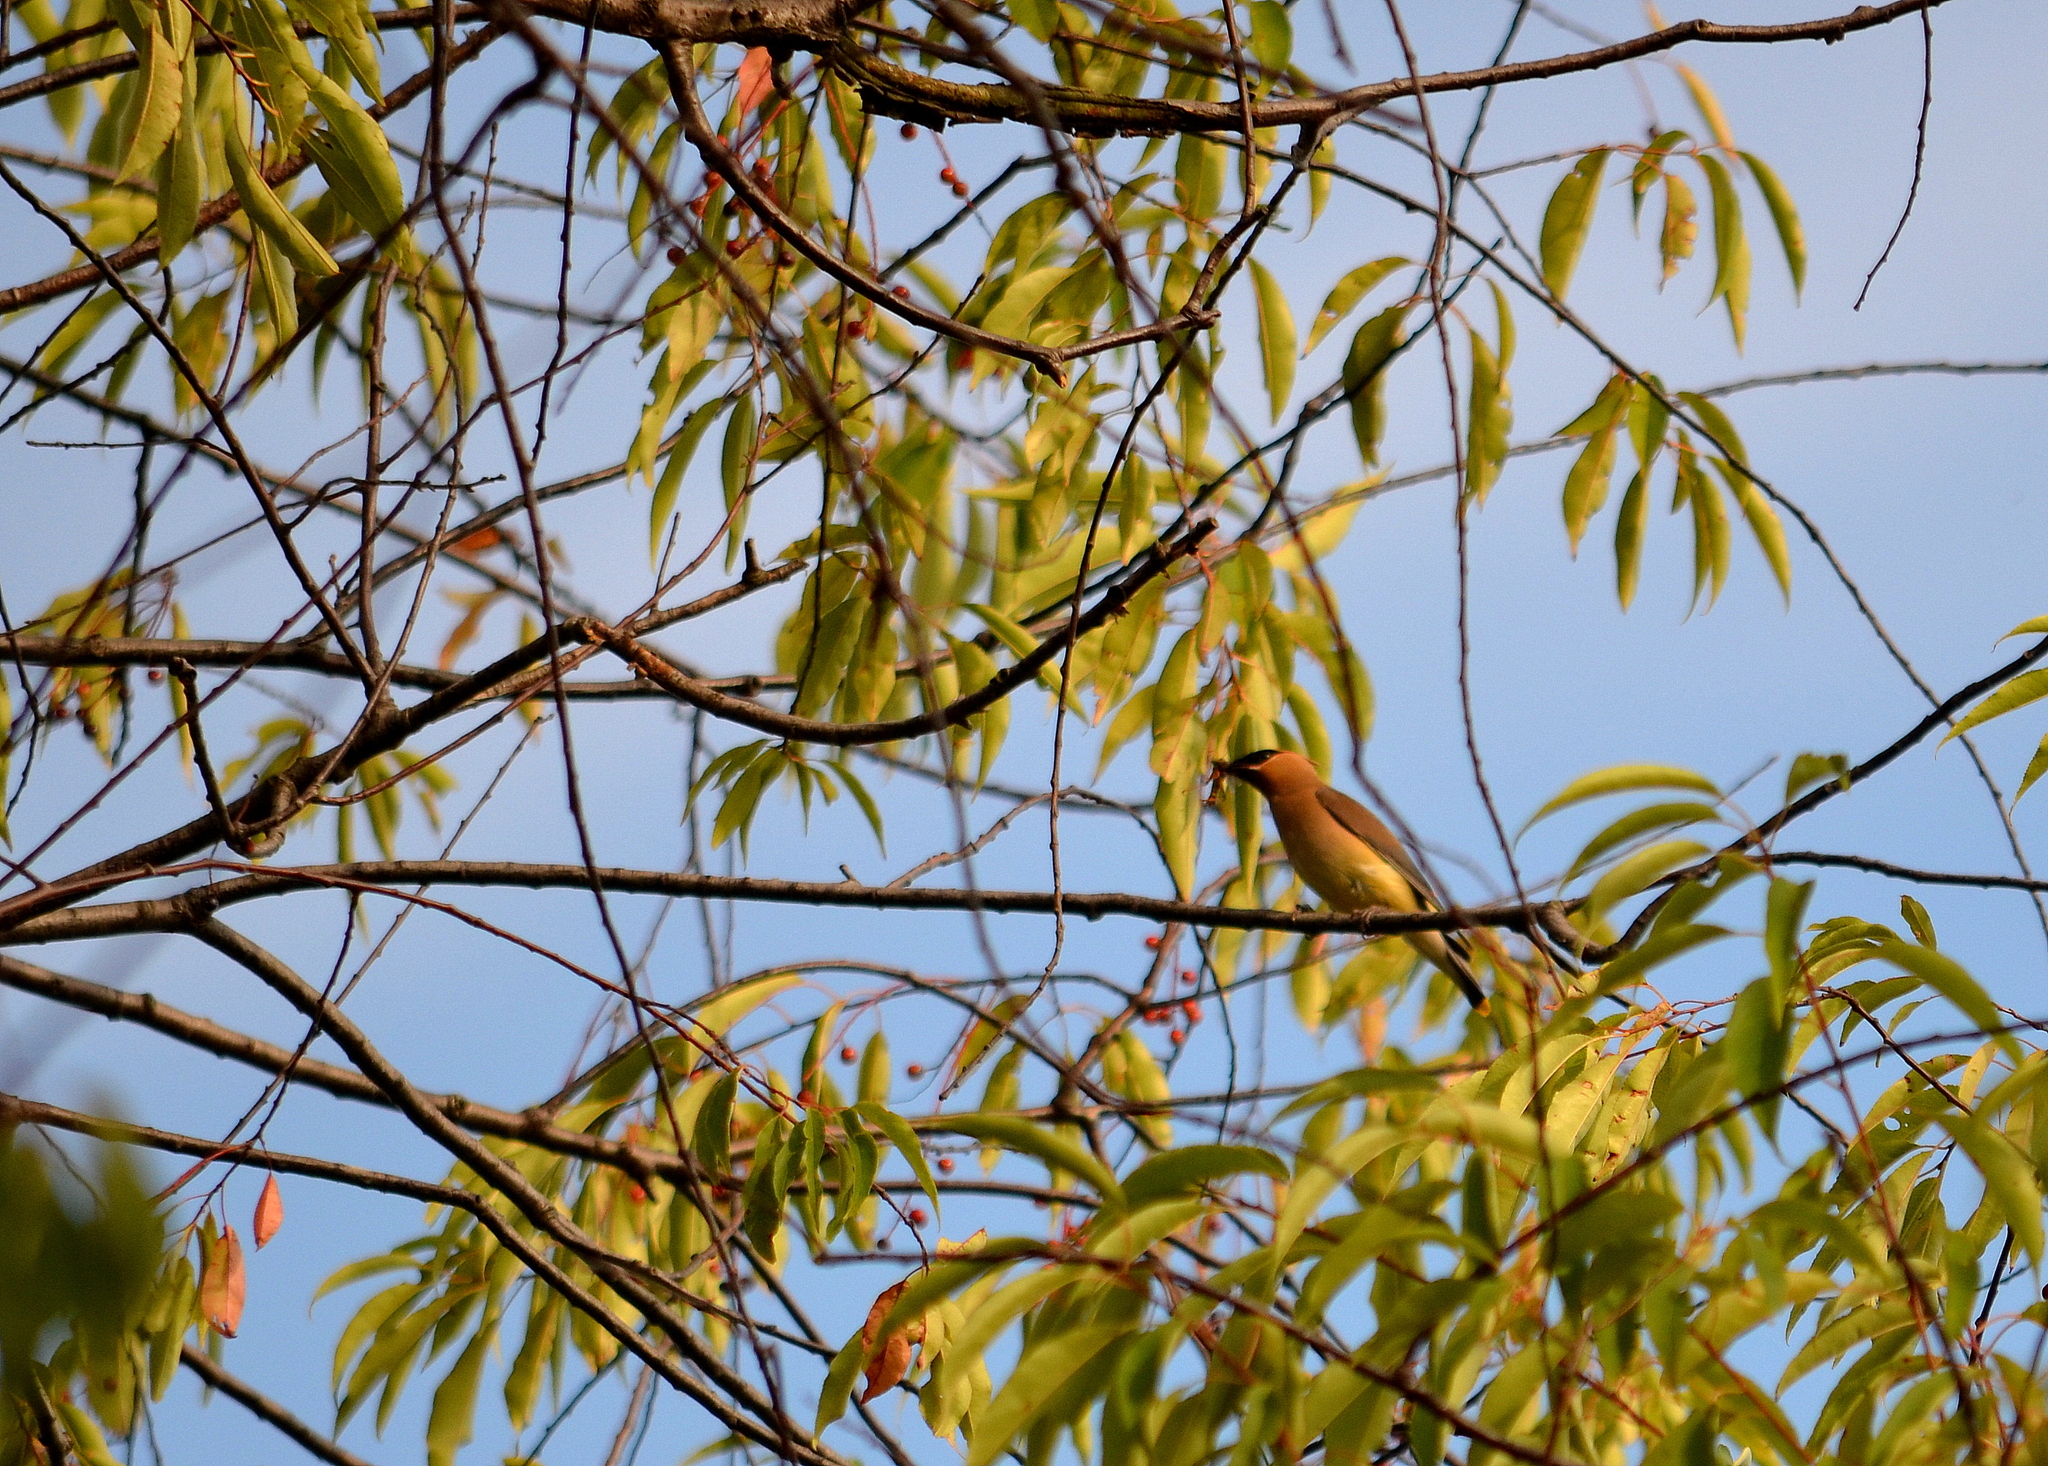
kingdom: Animalia
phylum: Chordata
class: Aves
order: Passeriformes
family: Bombycillidae
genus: Bombycilla
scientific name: Bombycilla cedrorum
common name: Cedar waxwing
